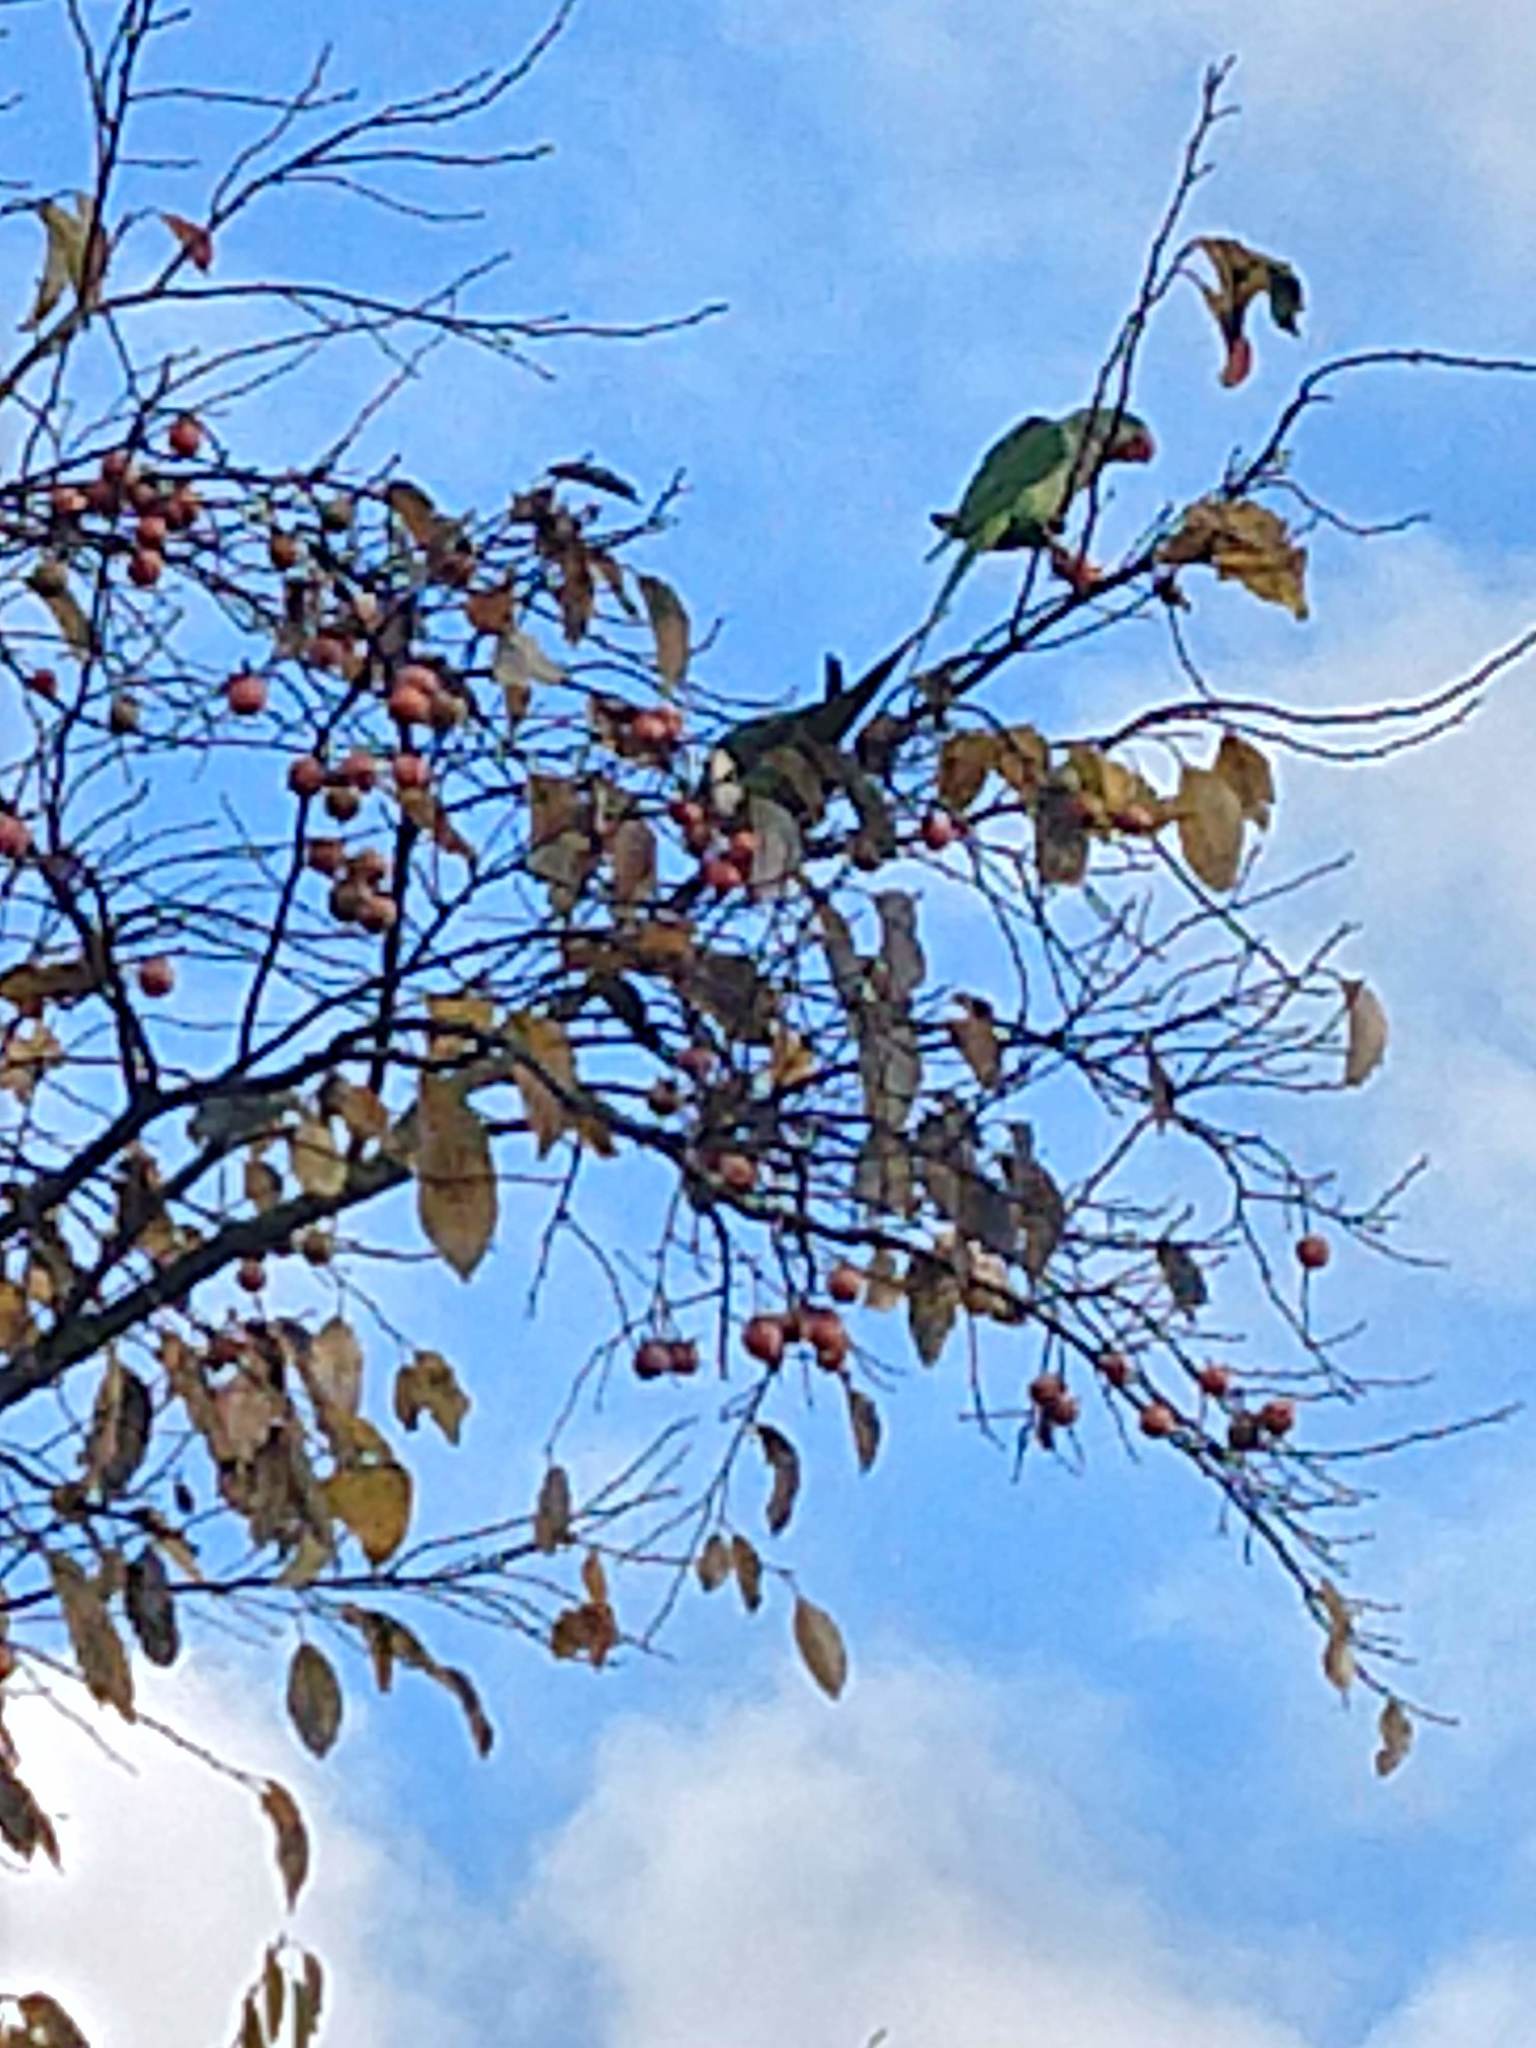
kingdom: Animalia
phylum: Chordata
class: Aves
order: Psittaciformes
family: Psittacidae
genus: Psittacula
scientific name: Psittacula eupatria
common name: Alexandrine parakeet
